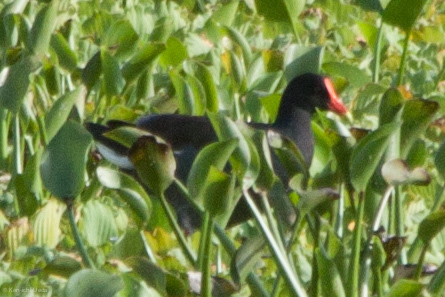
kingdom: Animalia
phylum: Chordata
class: Aves
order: Gruiformes
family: Rallidae
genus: Gallinula
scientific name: Gallinula chloropus
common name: Common moorhen
